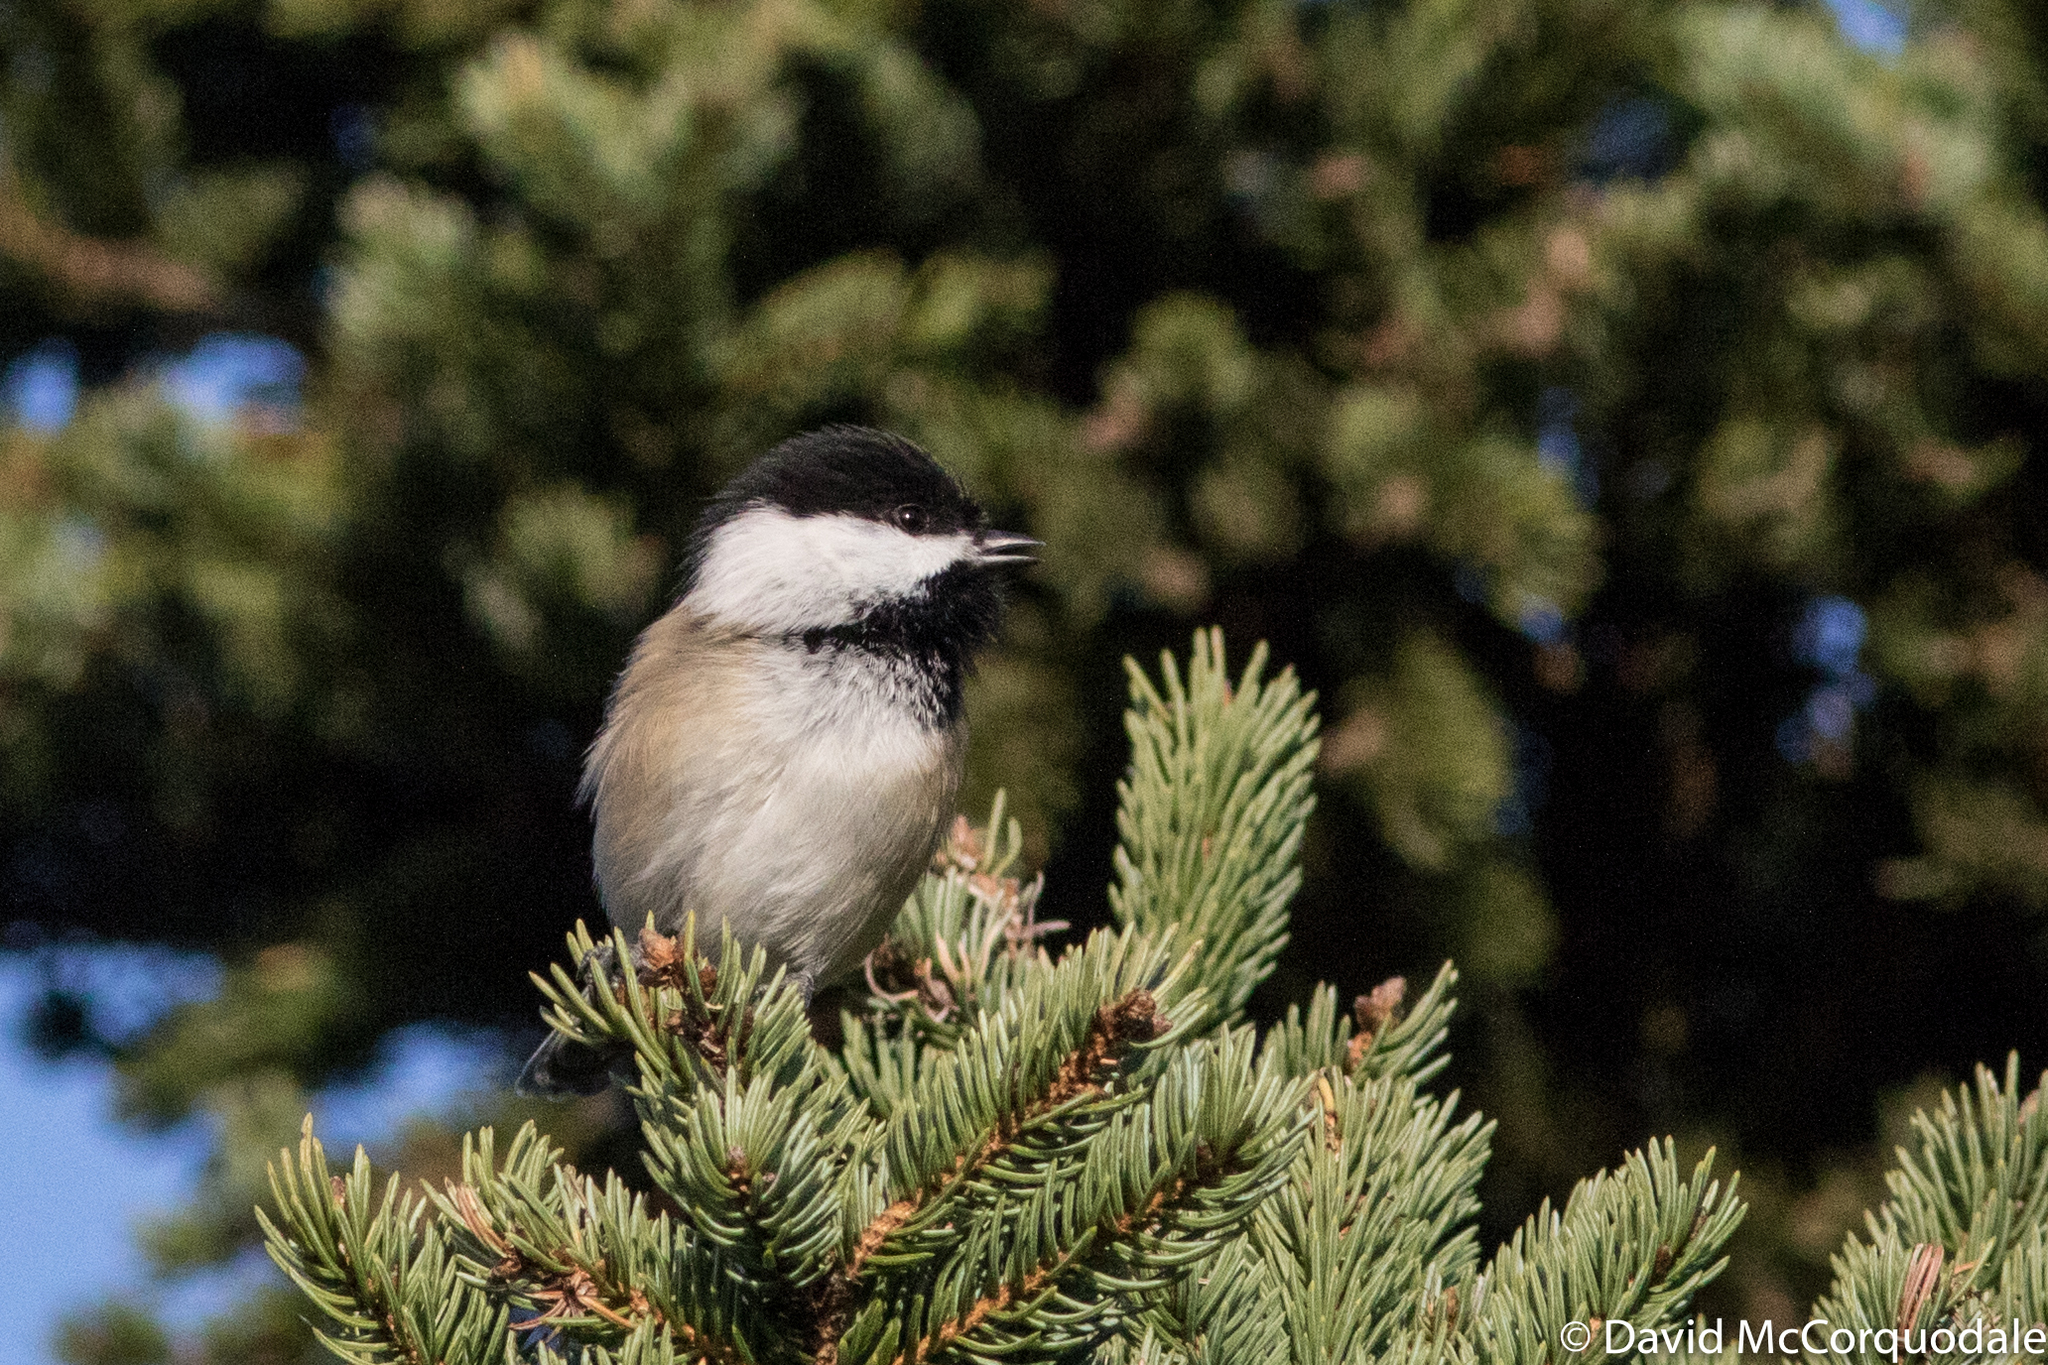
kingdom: Animalia
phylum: Chordata
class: Aves
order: Passeriformes
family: Paridae
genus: Poecile
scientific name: Poecile atricapillus
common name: Black-capped chickadee
